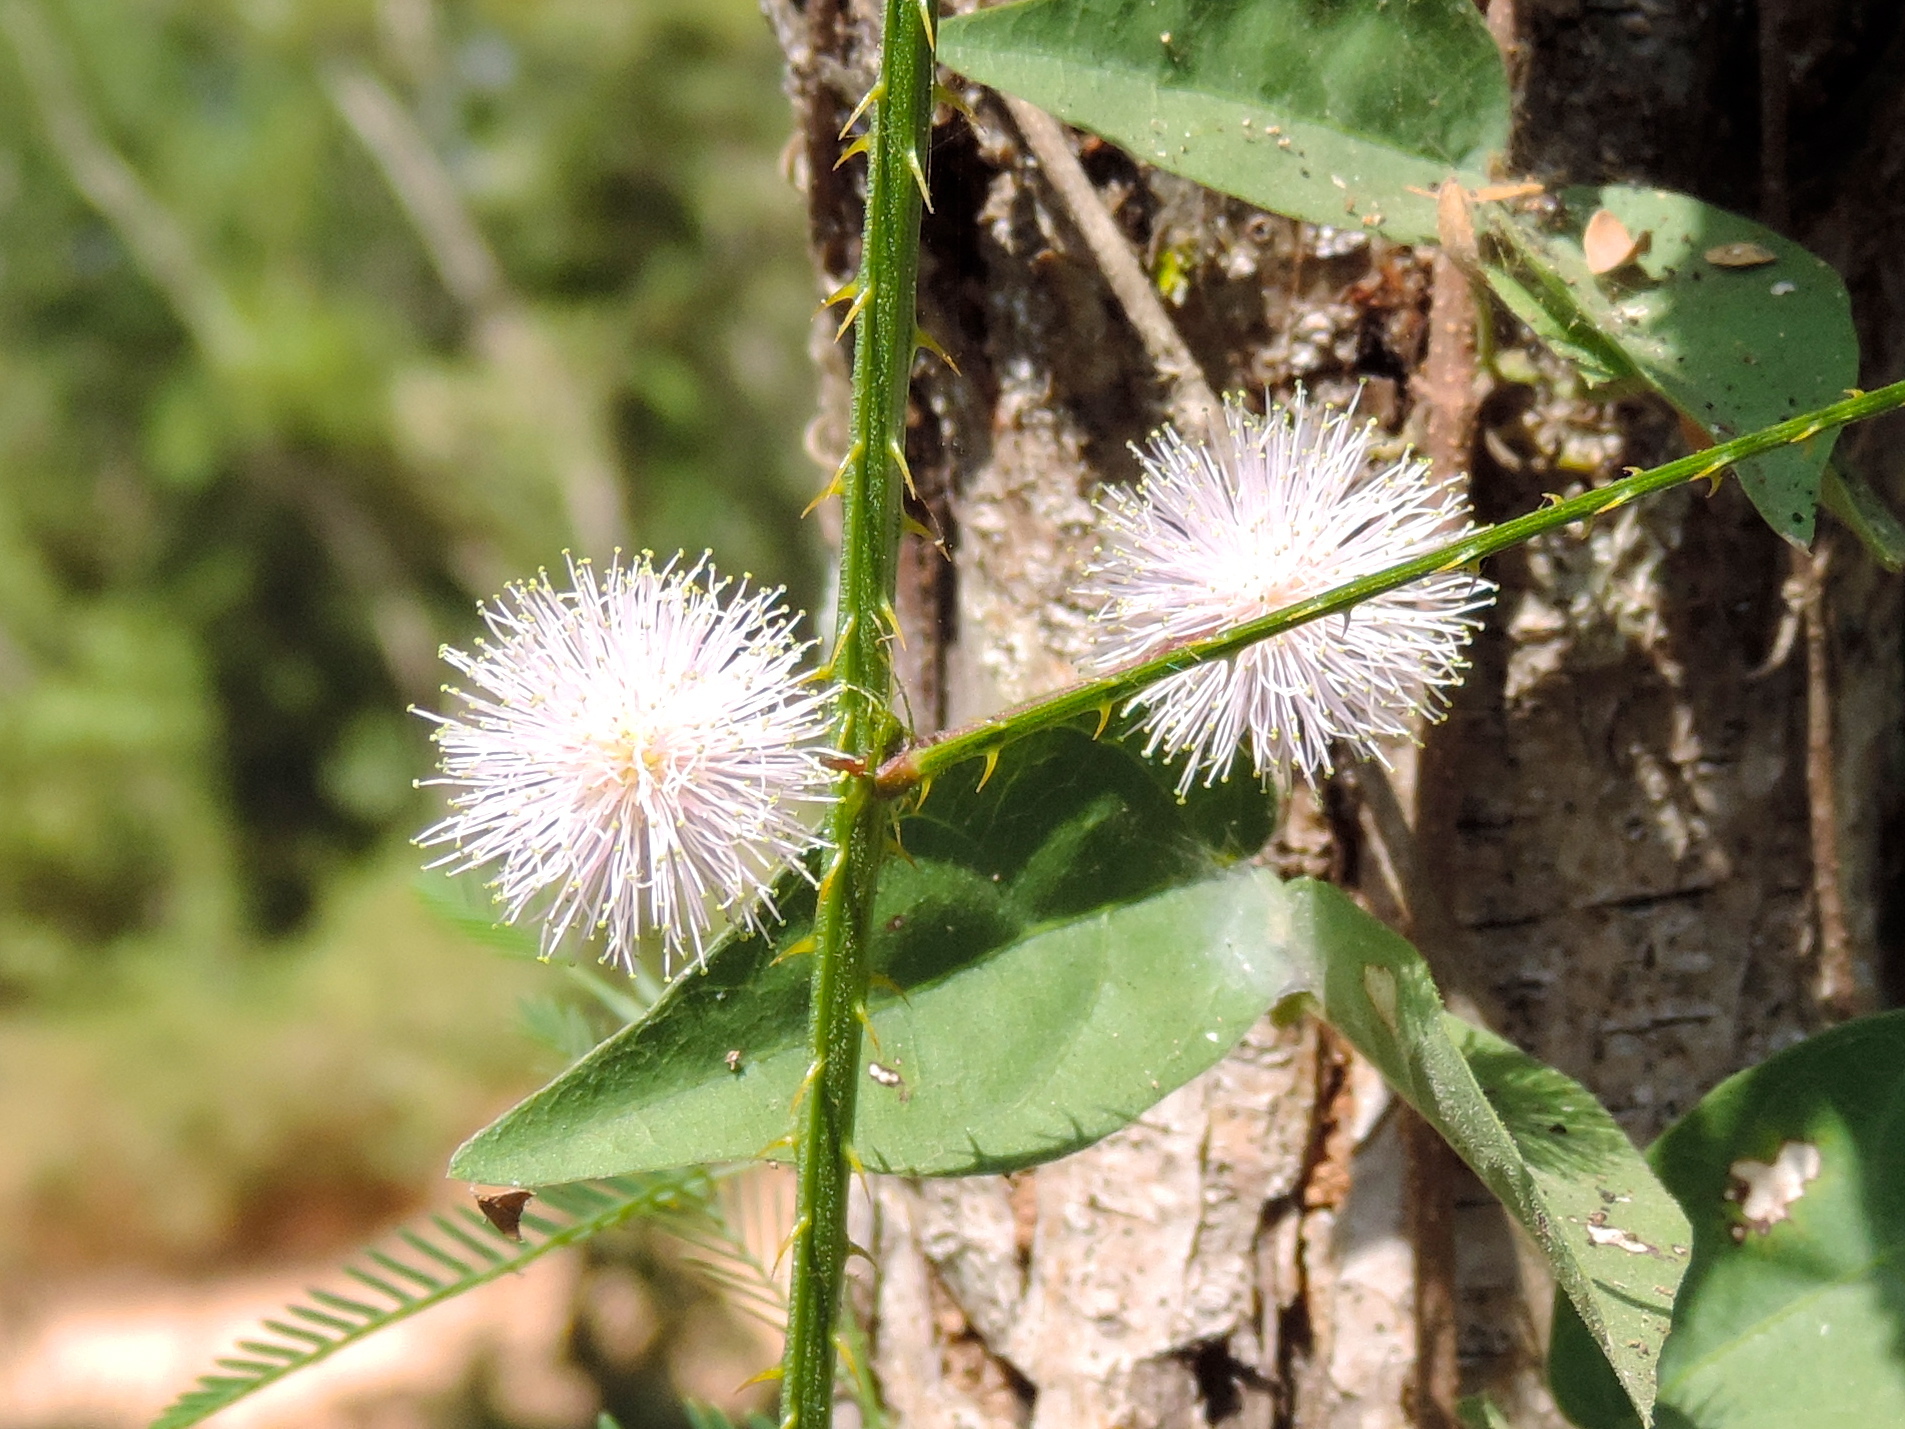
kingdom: Plantae
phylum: Tracheophyta
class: Magnoliopsida
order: Fabales
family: Fabaceae
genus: Mimosa
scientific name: Mimosa quadrivalvis
